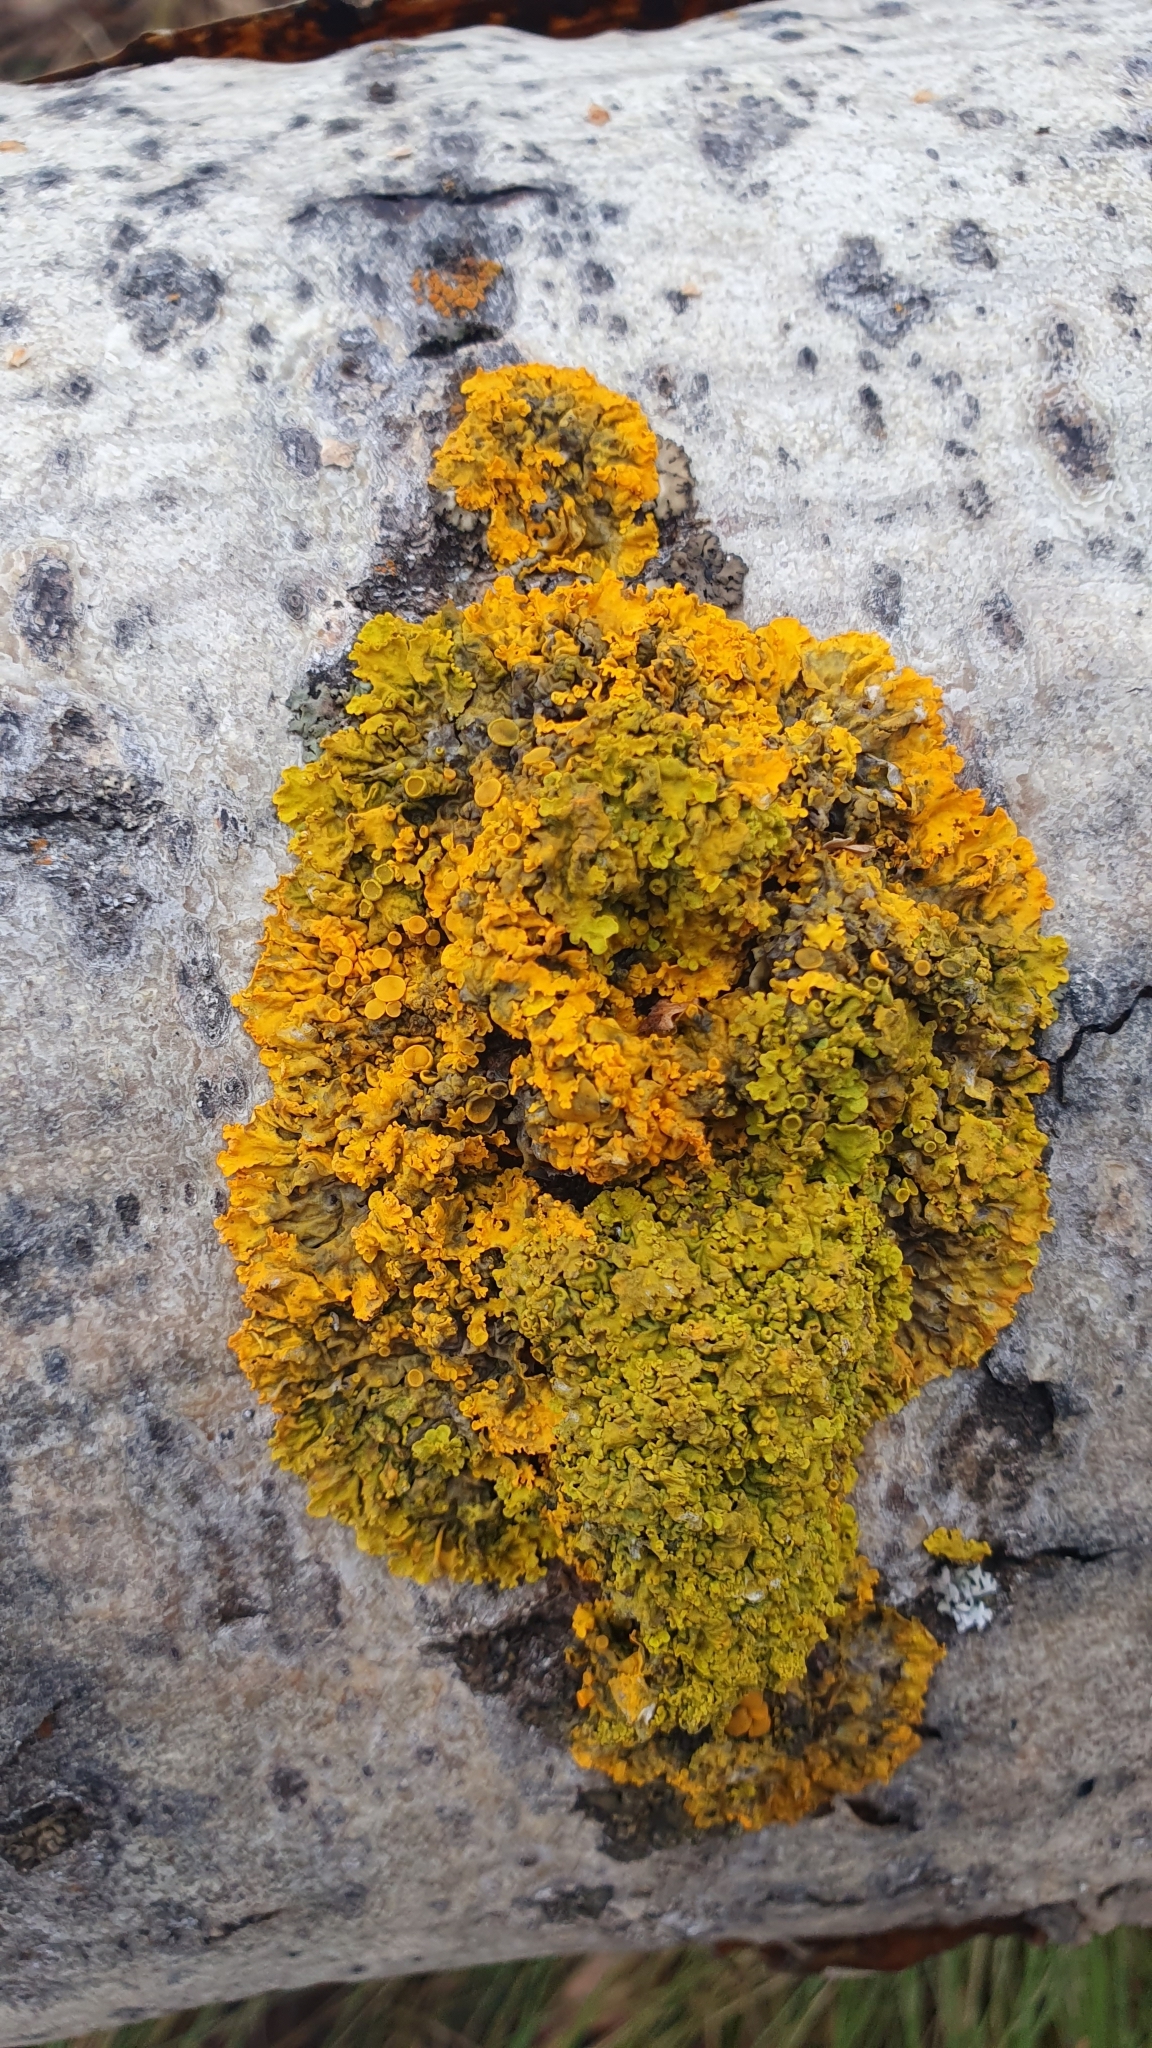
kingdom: Fungi
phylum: Ascomycota
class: Lecanoromycetes
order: Teloschistales
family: Teloschistaceae
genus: Xanthoria
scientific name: Xanthoria parietina
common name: Common orange lichen
